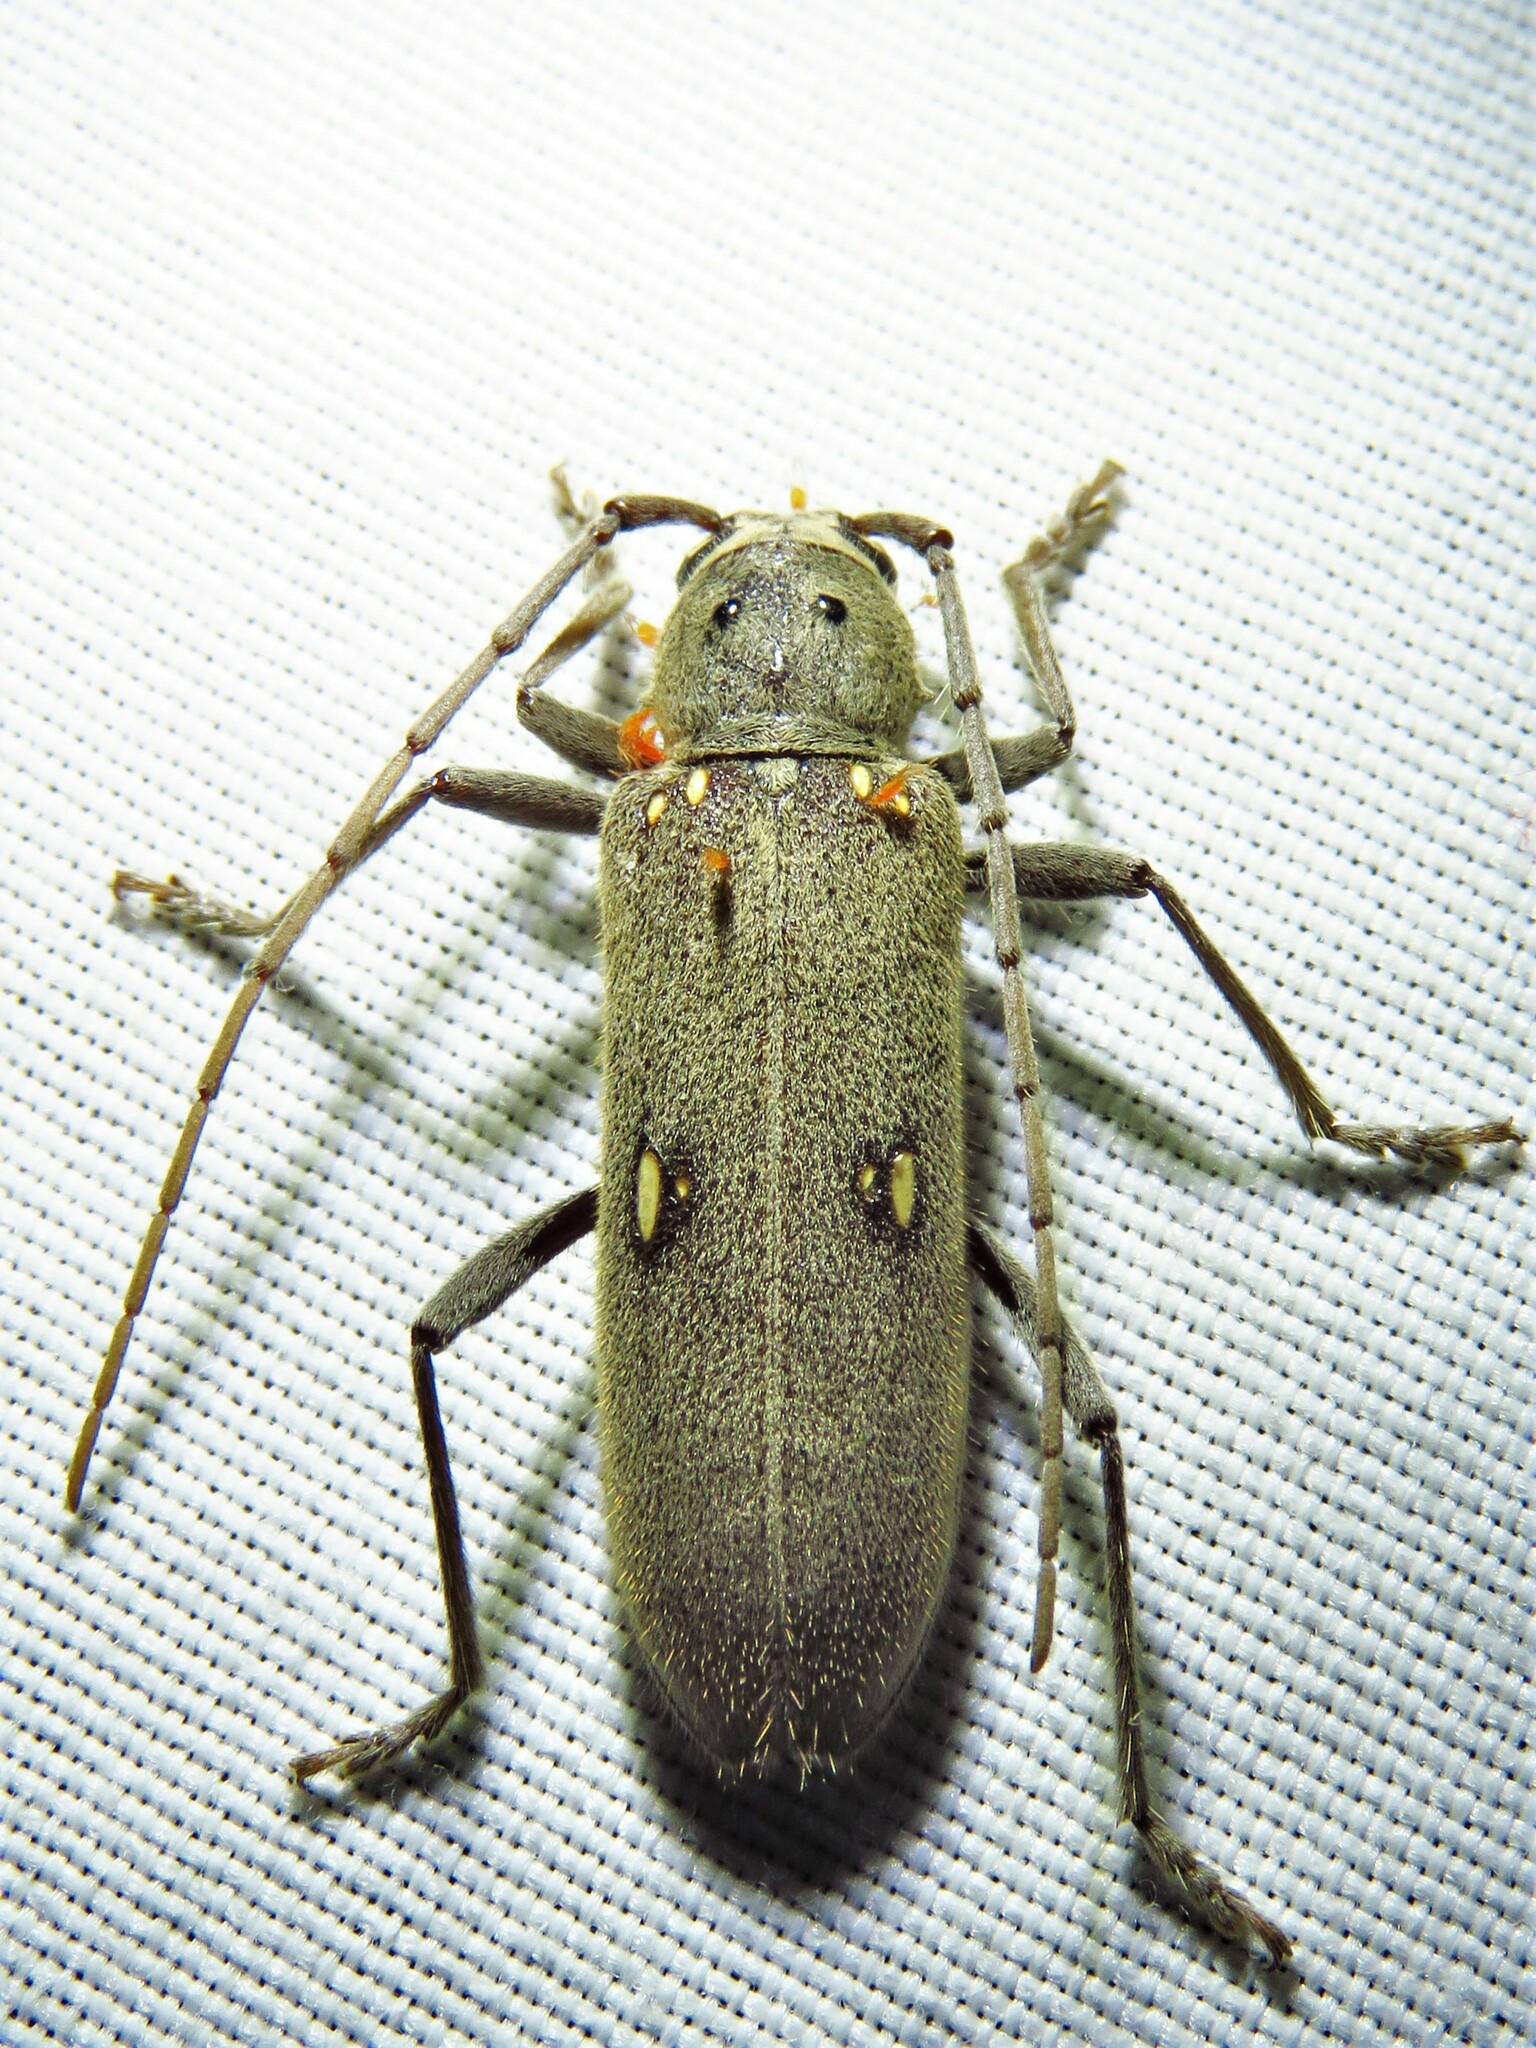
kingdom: Animalia
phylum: Arthropoda
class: Insecta
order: Coleoptera
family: Cerambycidae
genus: Eburia
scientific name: Eburia mutica
